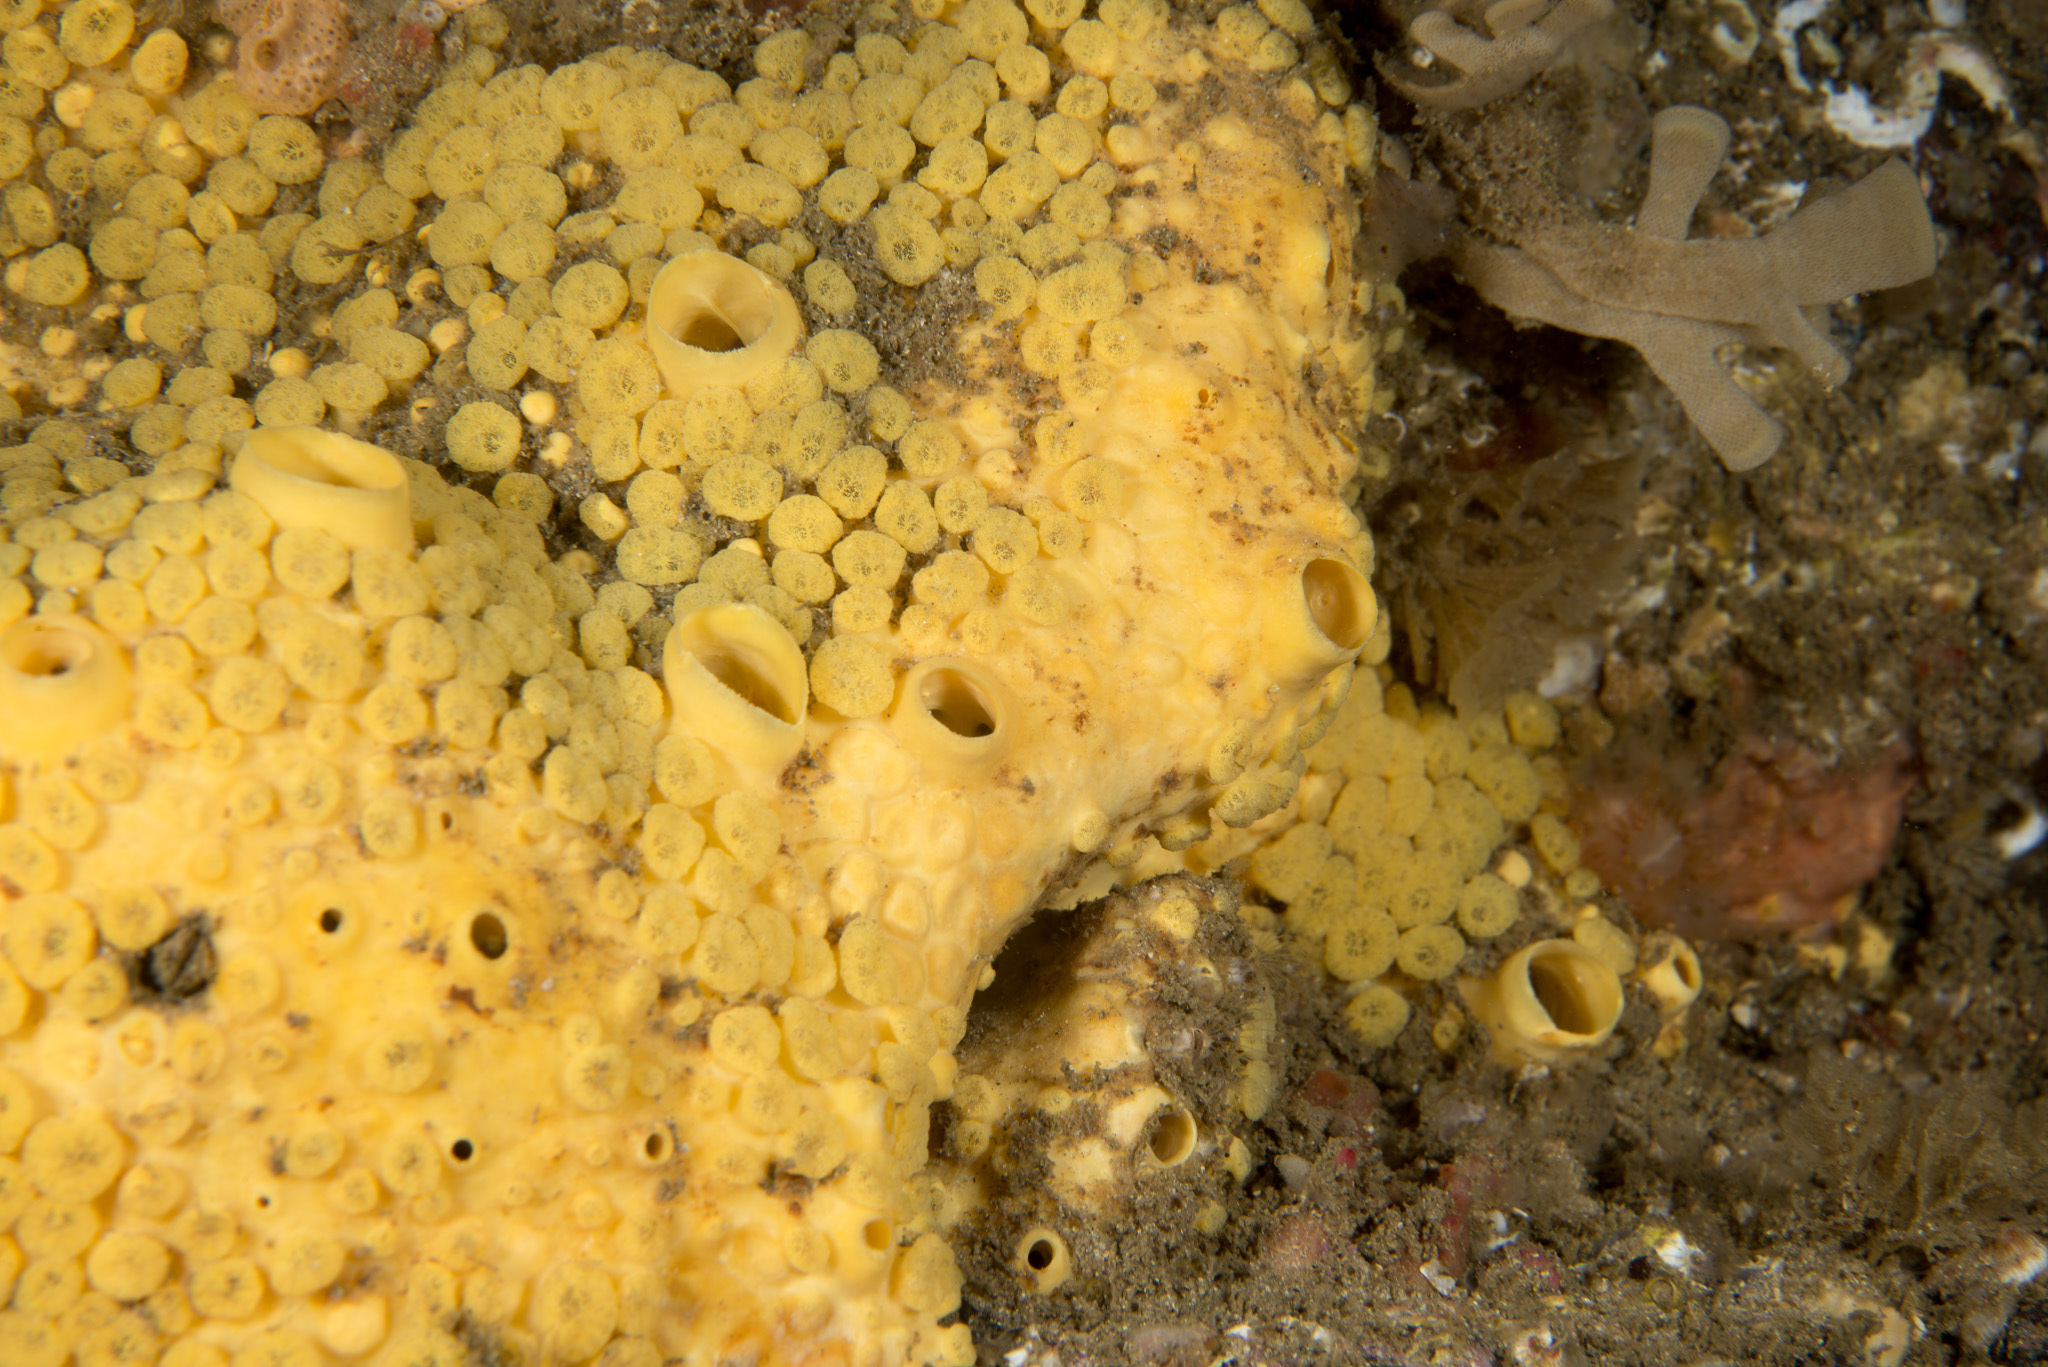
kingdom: Animalia
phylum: Porifera
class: Demospongiae
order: Clionaida
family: Clionaidae
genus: Cliona
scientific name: Cliona celata
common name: Boring sponge
